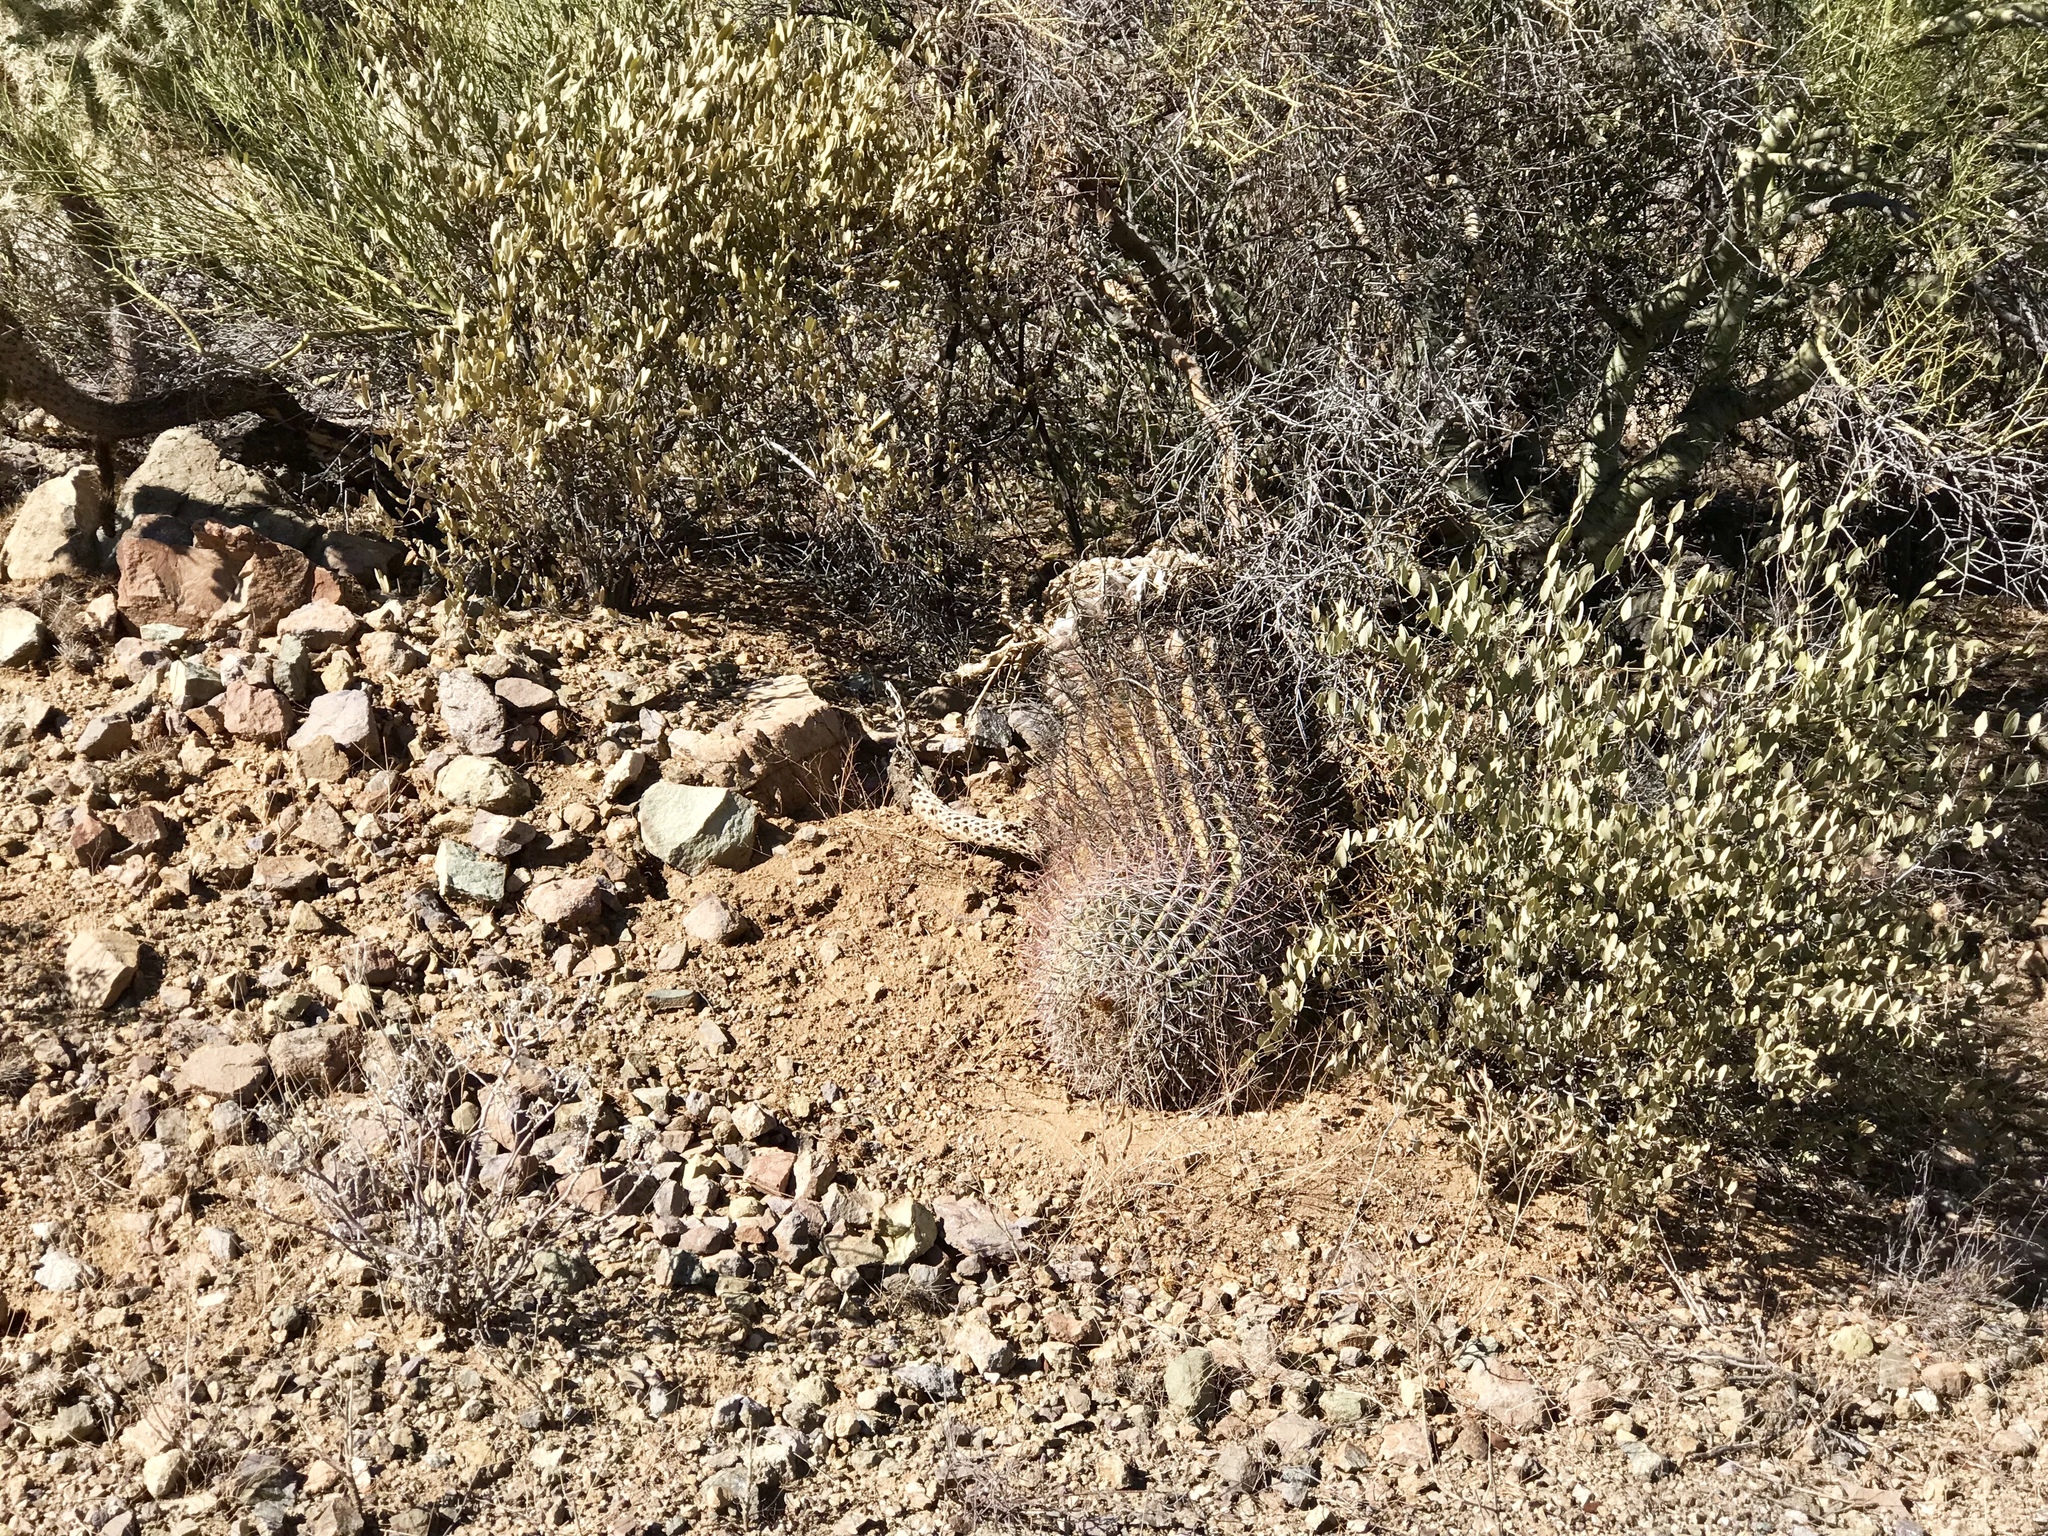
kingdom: Plantae
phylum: Tracheophyta
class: Magnoliopsida
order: Caryophyllales
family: Cactaceae
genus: Ferocactus
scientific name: Ferocactus wislizeni
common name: Candy barrel cactus
